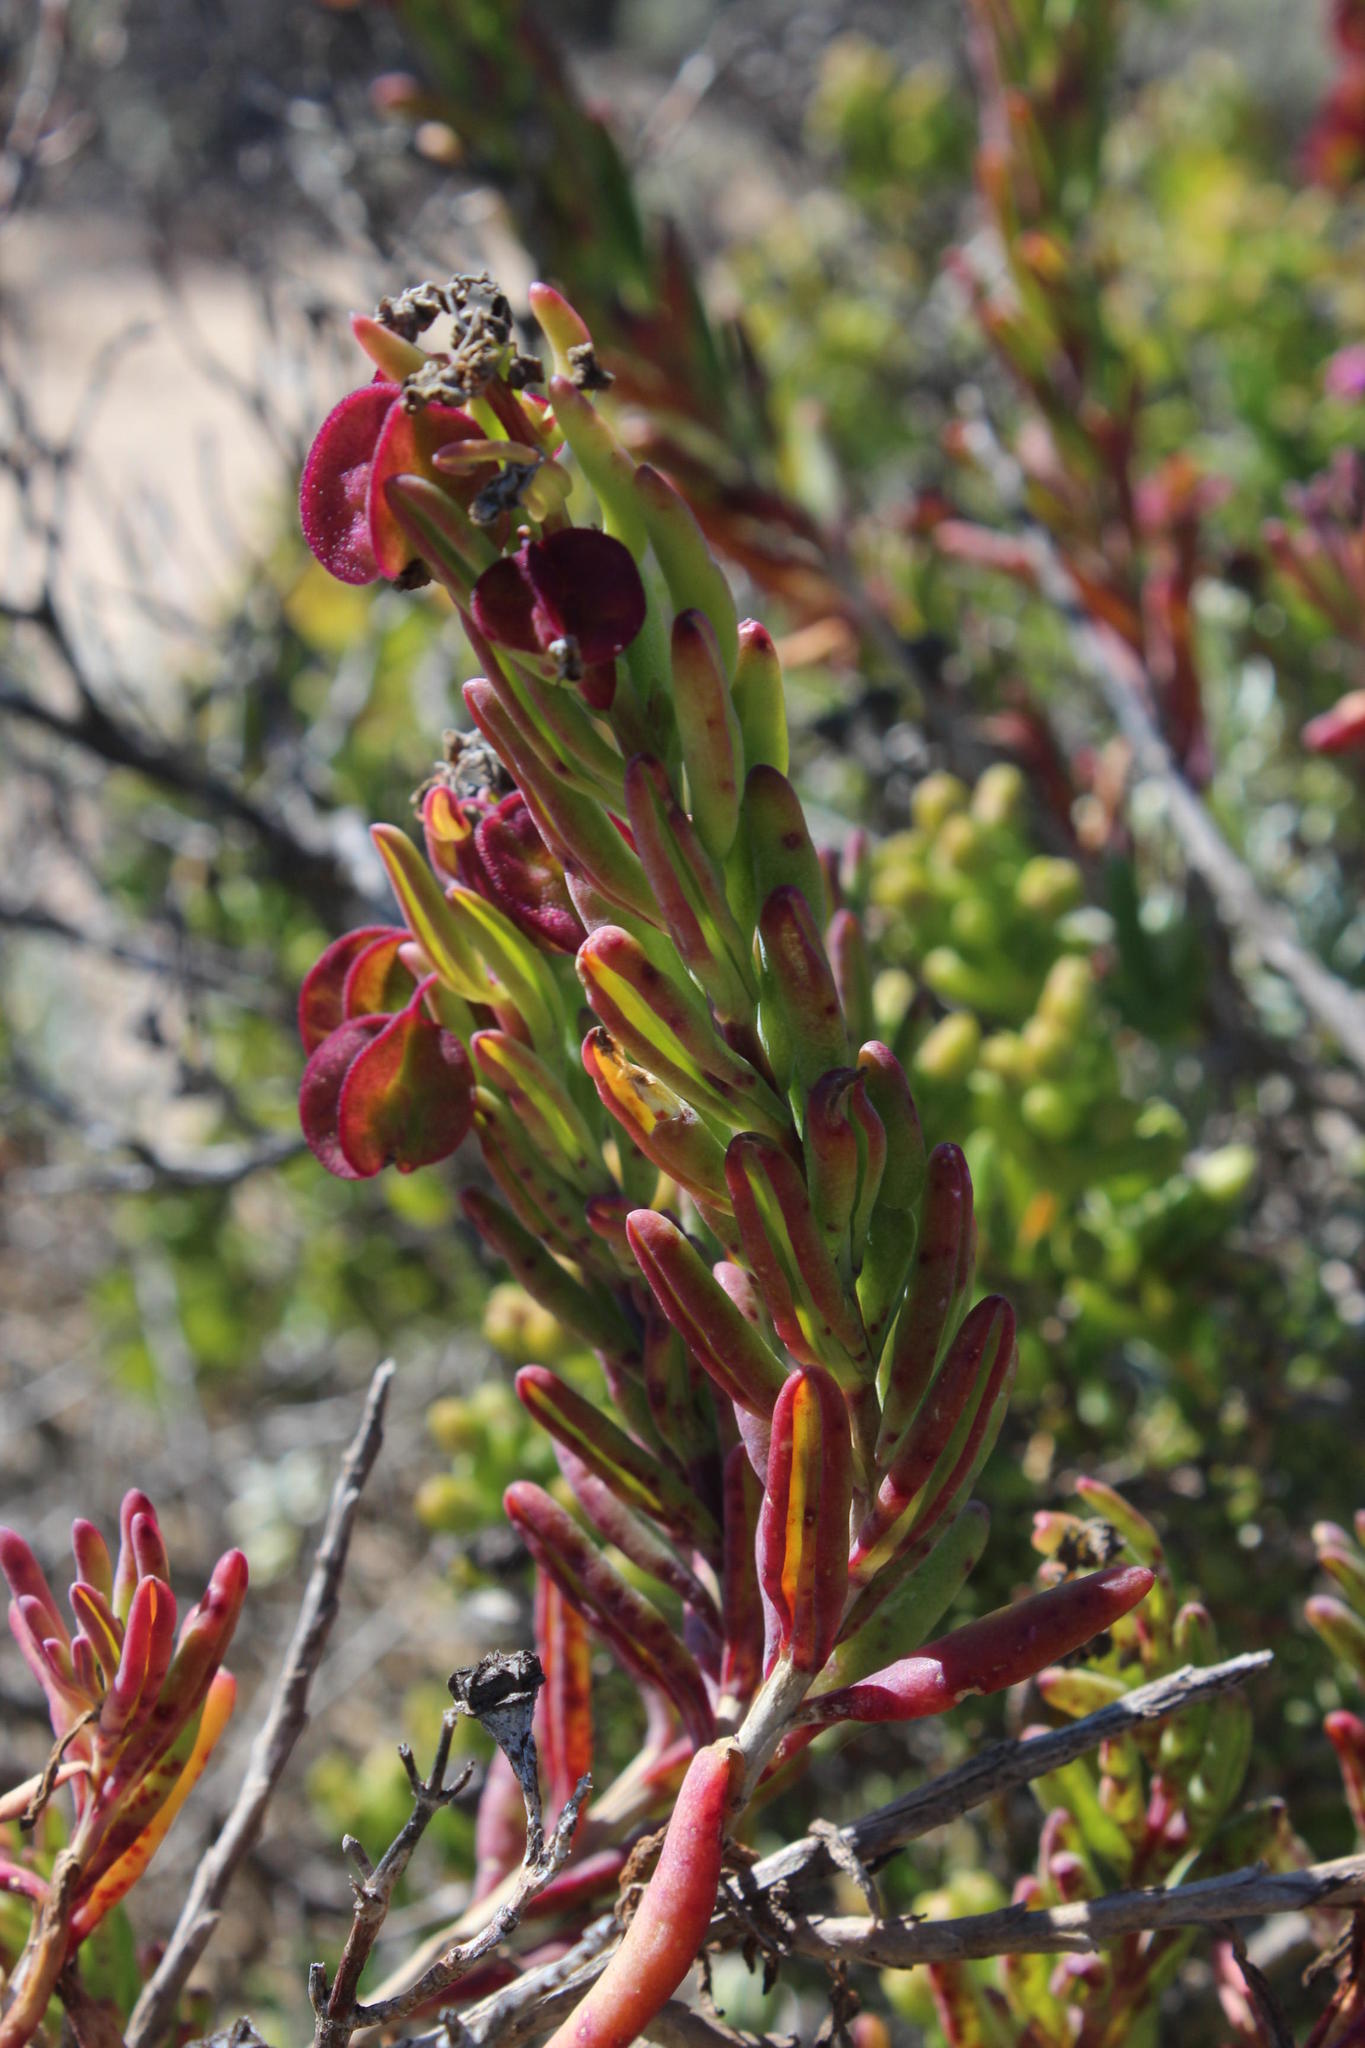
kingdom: Plantae
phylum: Tracheophyta
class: Magnoliopsida
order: Caryophyllales
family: Aizoaceae
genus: Tetragonia
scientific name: Tetragonia fruticosa
